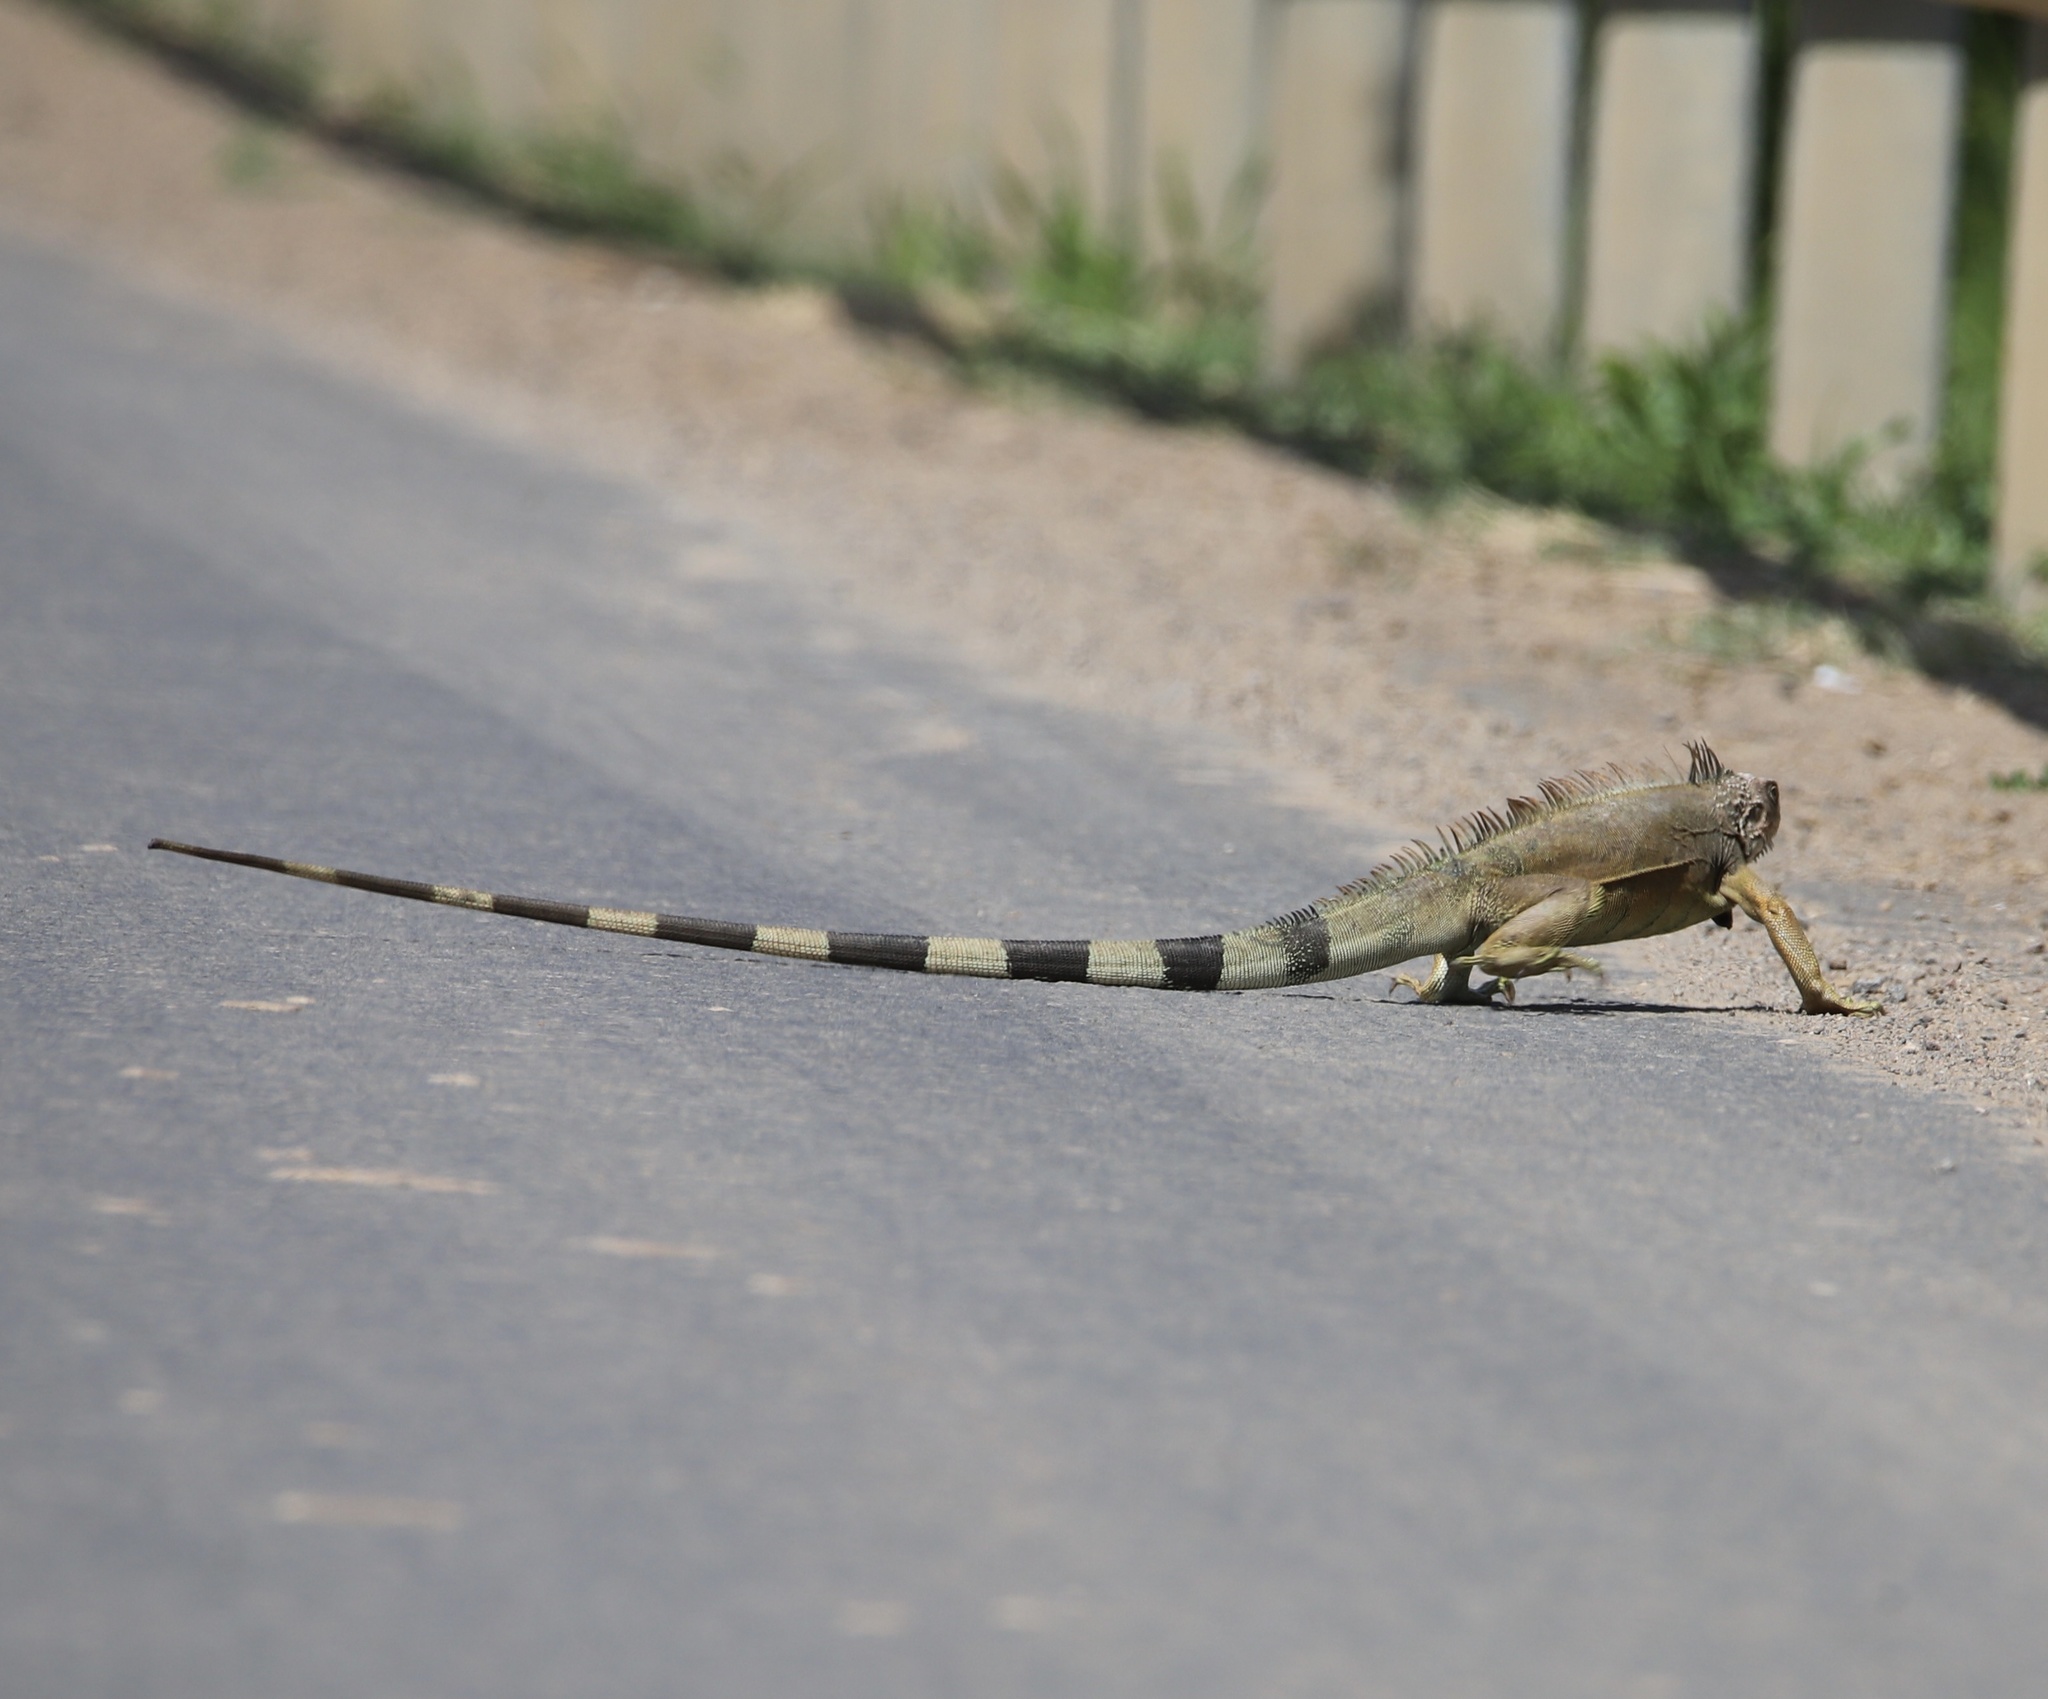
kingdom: Animalia
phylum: Chordata
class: Squamata
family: Iguanidae
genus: Iguana
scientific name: Iguana iguana
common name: Green iguana
